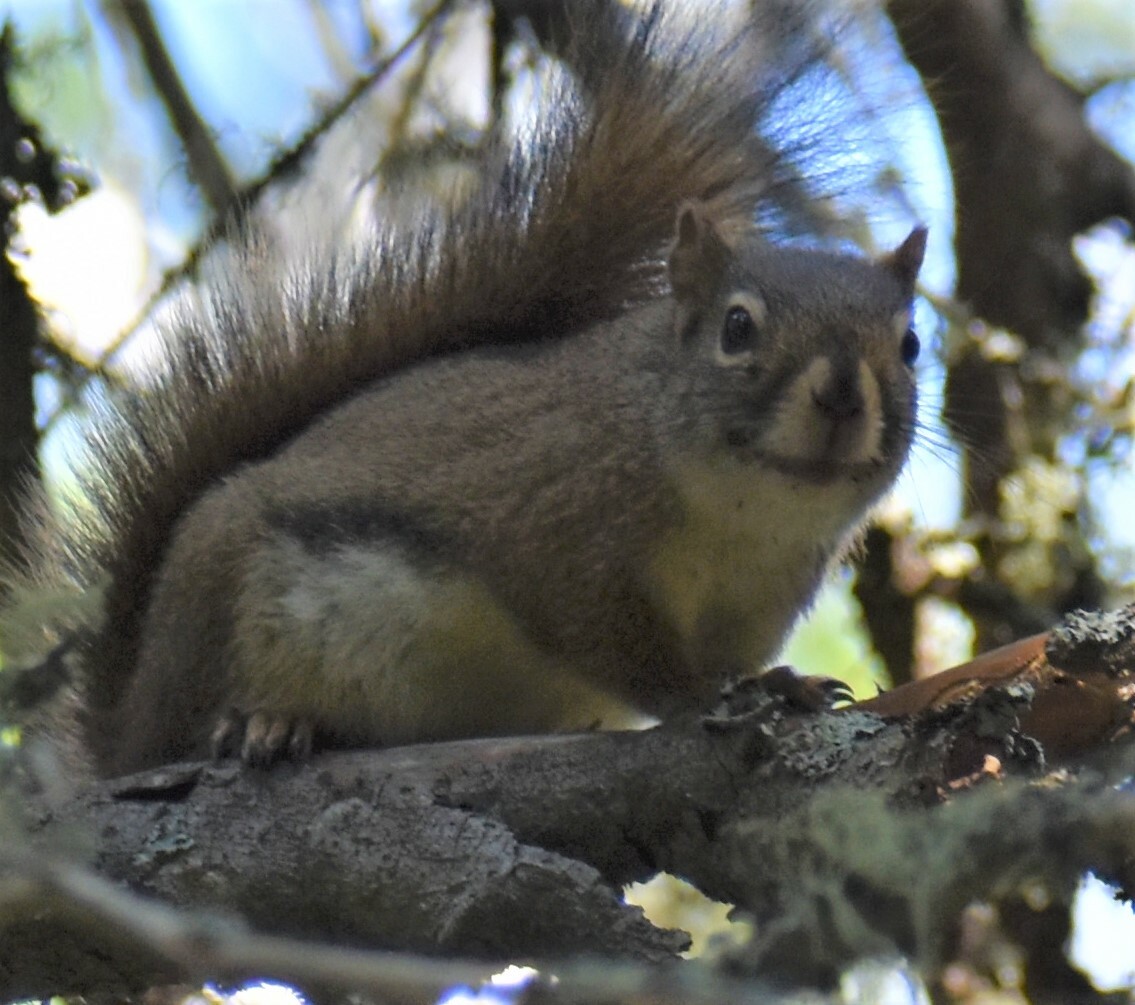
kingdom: Animalia
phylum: Chordata
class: Mammalia
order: Rodentia
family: Sciuridae
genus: Tamiasciurus
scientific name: Tamiasciurus hudsonicus
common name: Red squirrel
